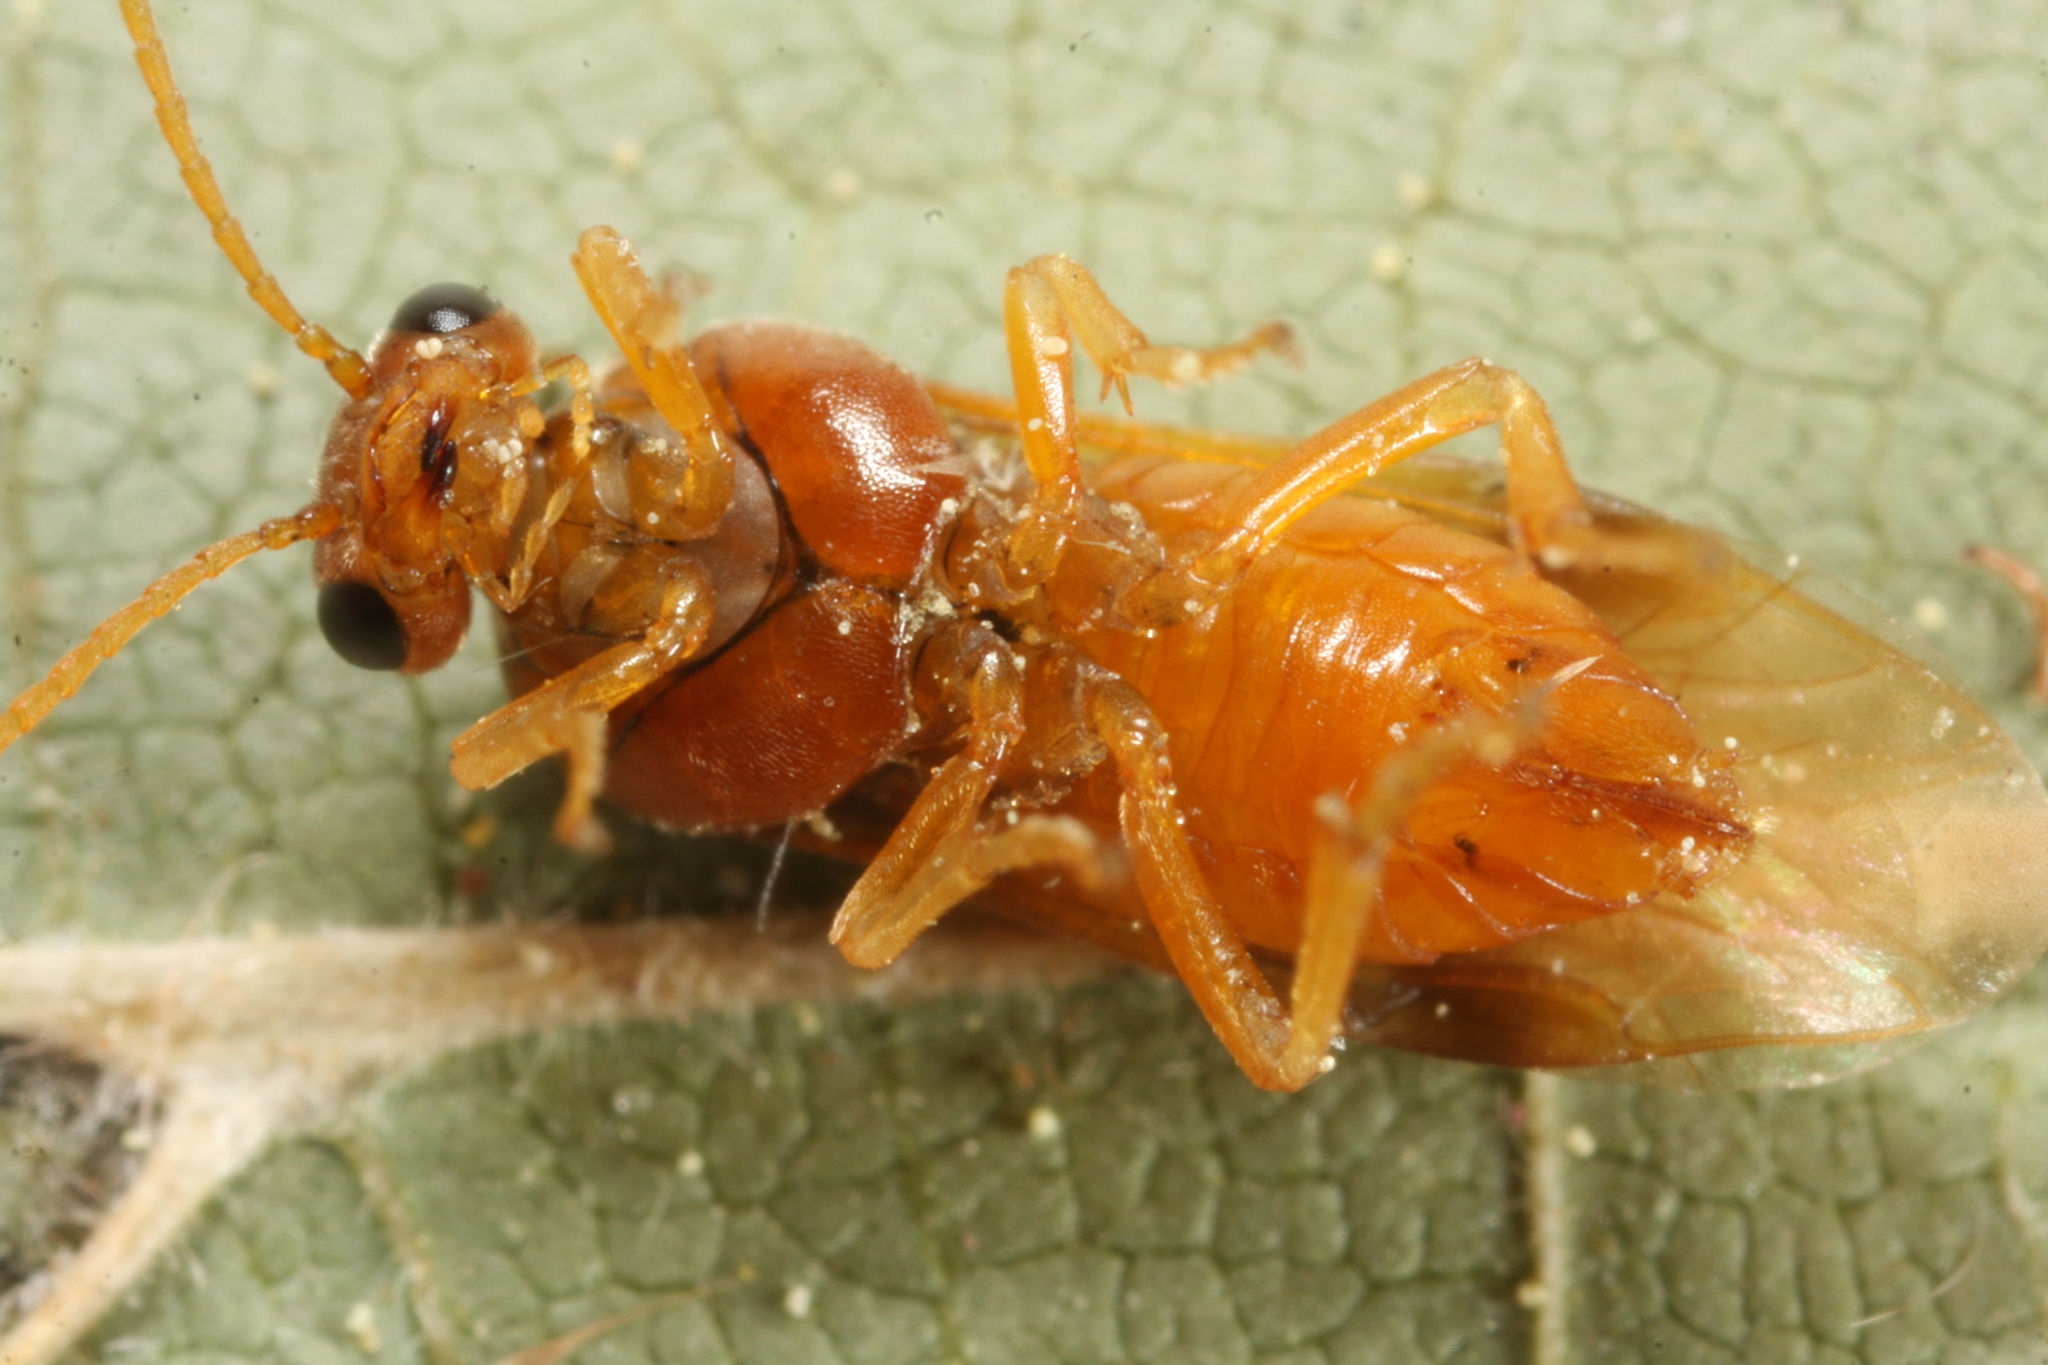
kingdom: Animalia
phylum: Arthropoda
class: Insecta
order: Hymenoptera
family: Tenthredinidae
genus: Hoplocampa
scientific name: Hoplocampa flava
